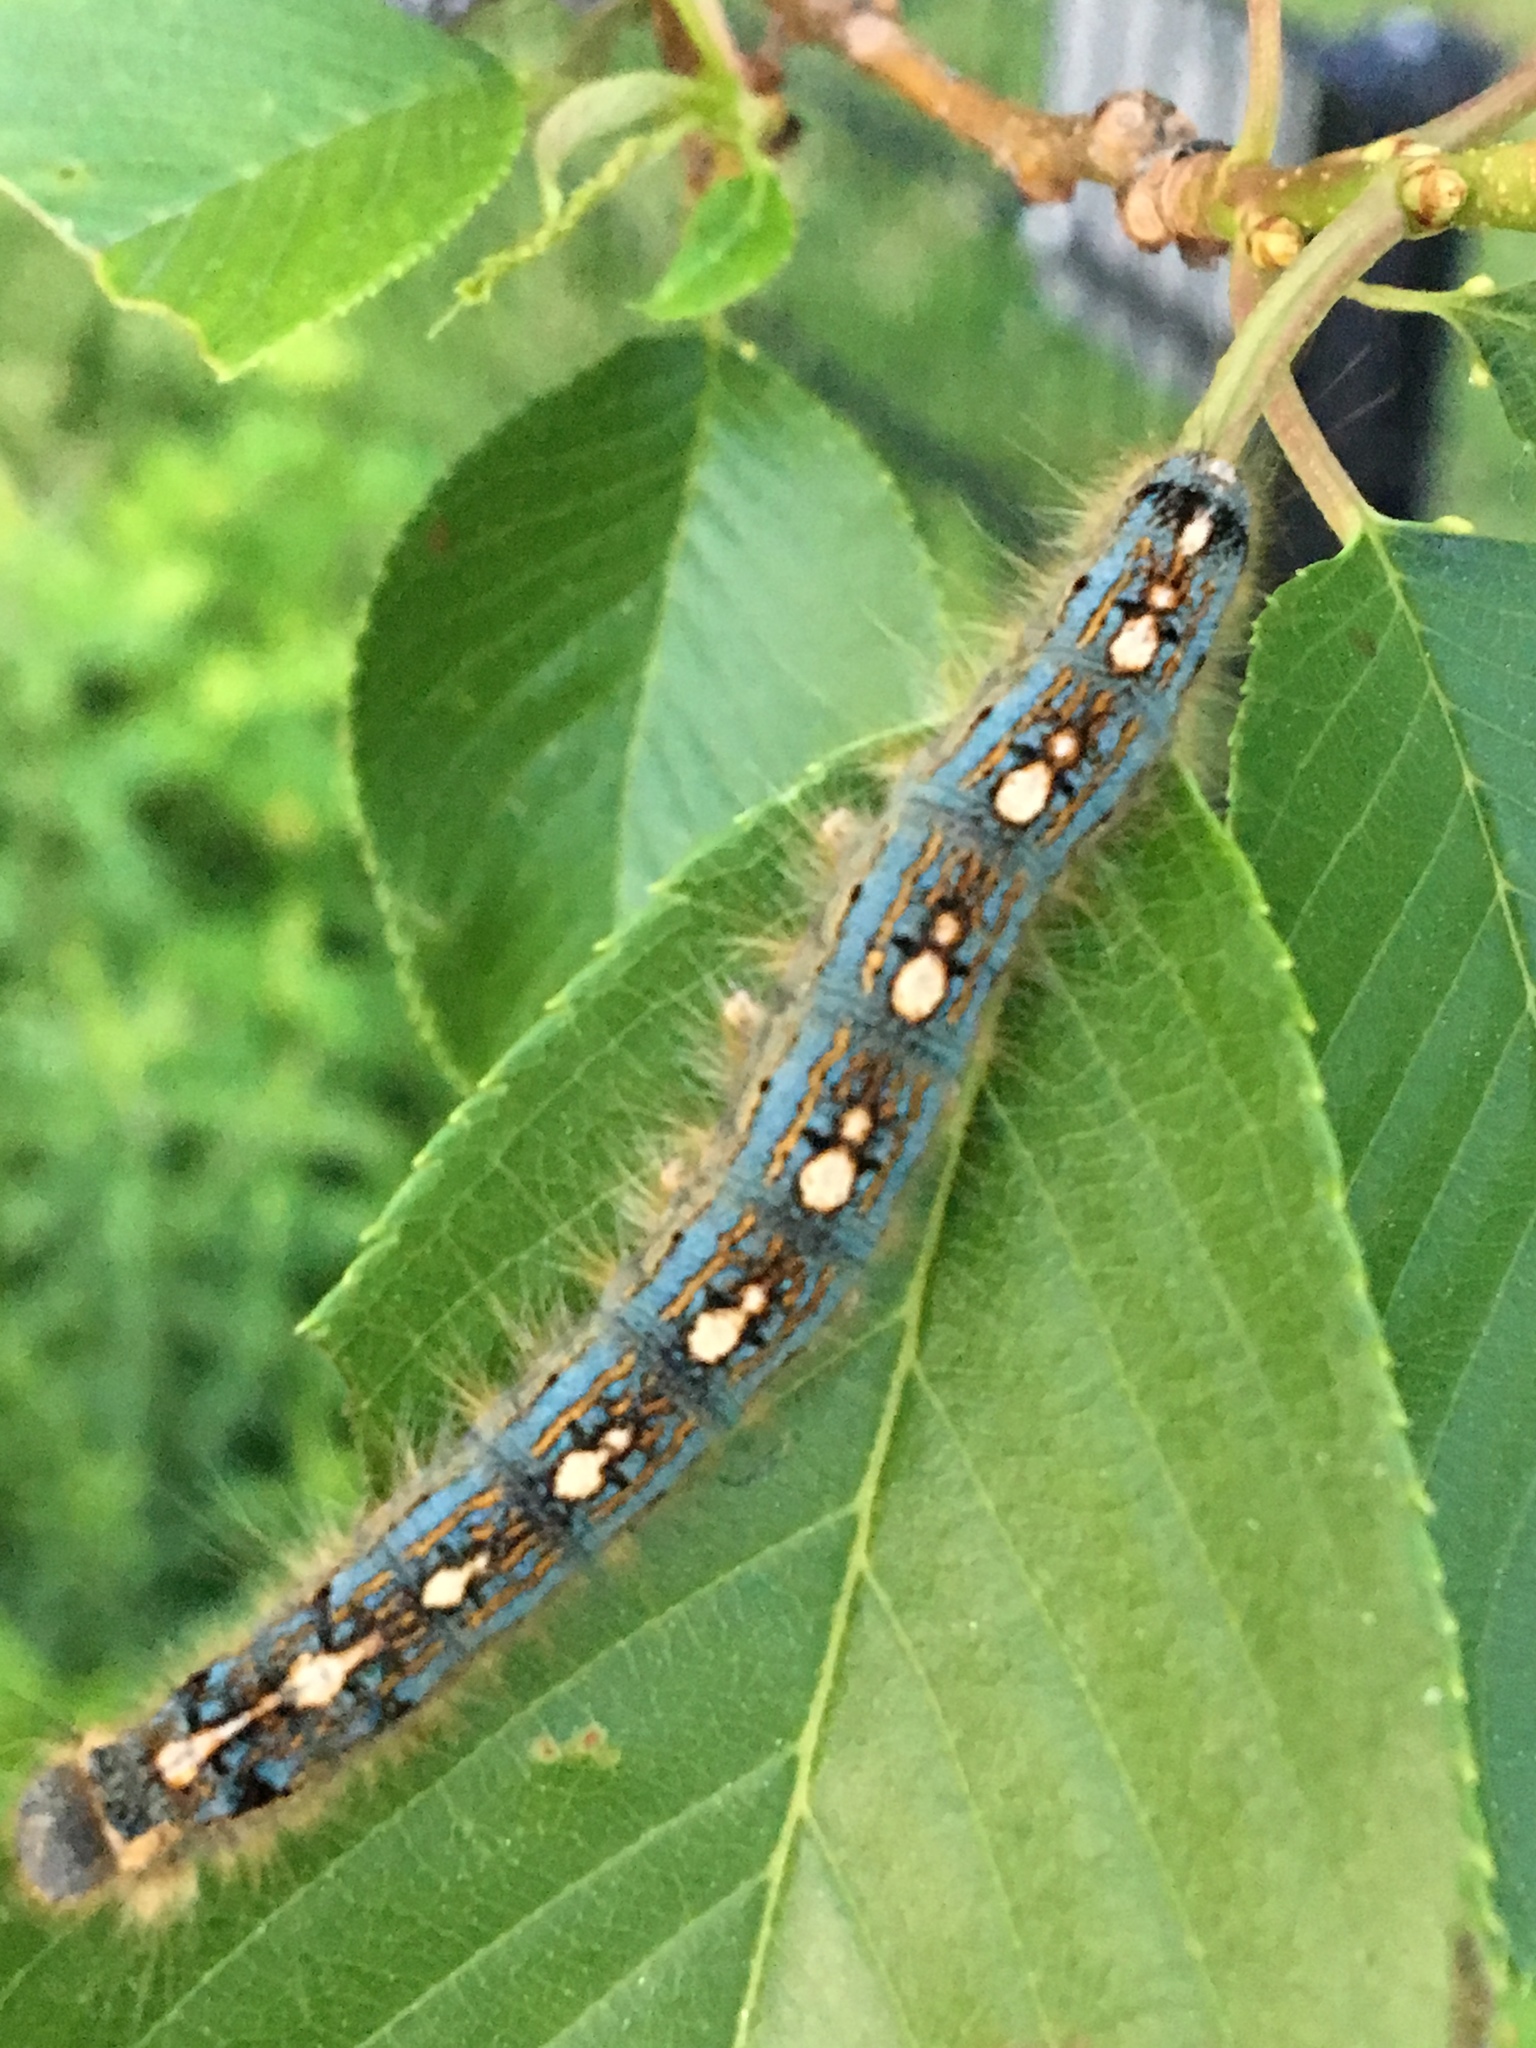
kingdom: Animalia
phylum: Arthropoda
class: Insecta
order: Lepidoptera
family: Lasiocampidae
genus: Malacosoma
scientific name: Malacosoma disstria
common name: Forest tent caterpillar
